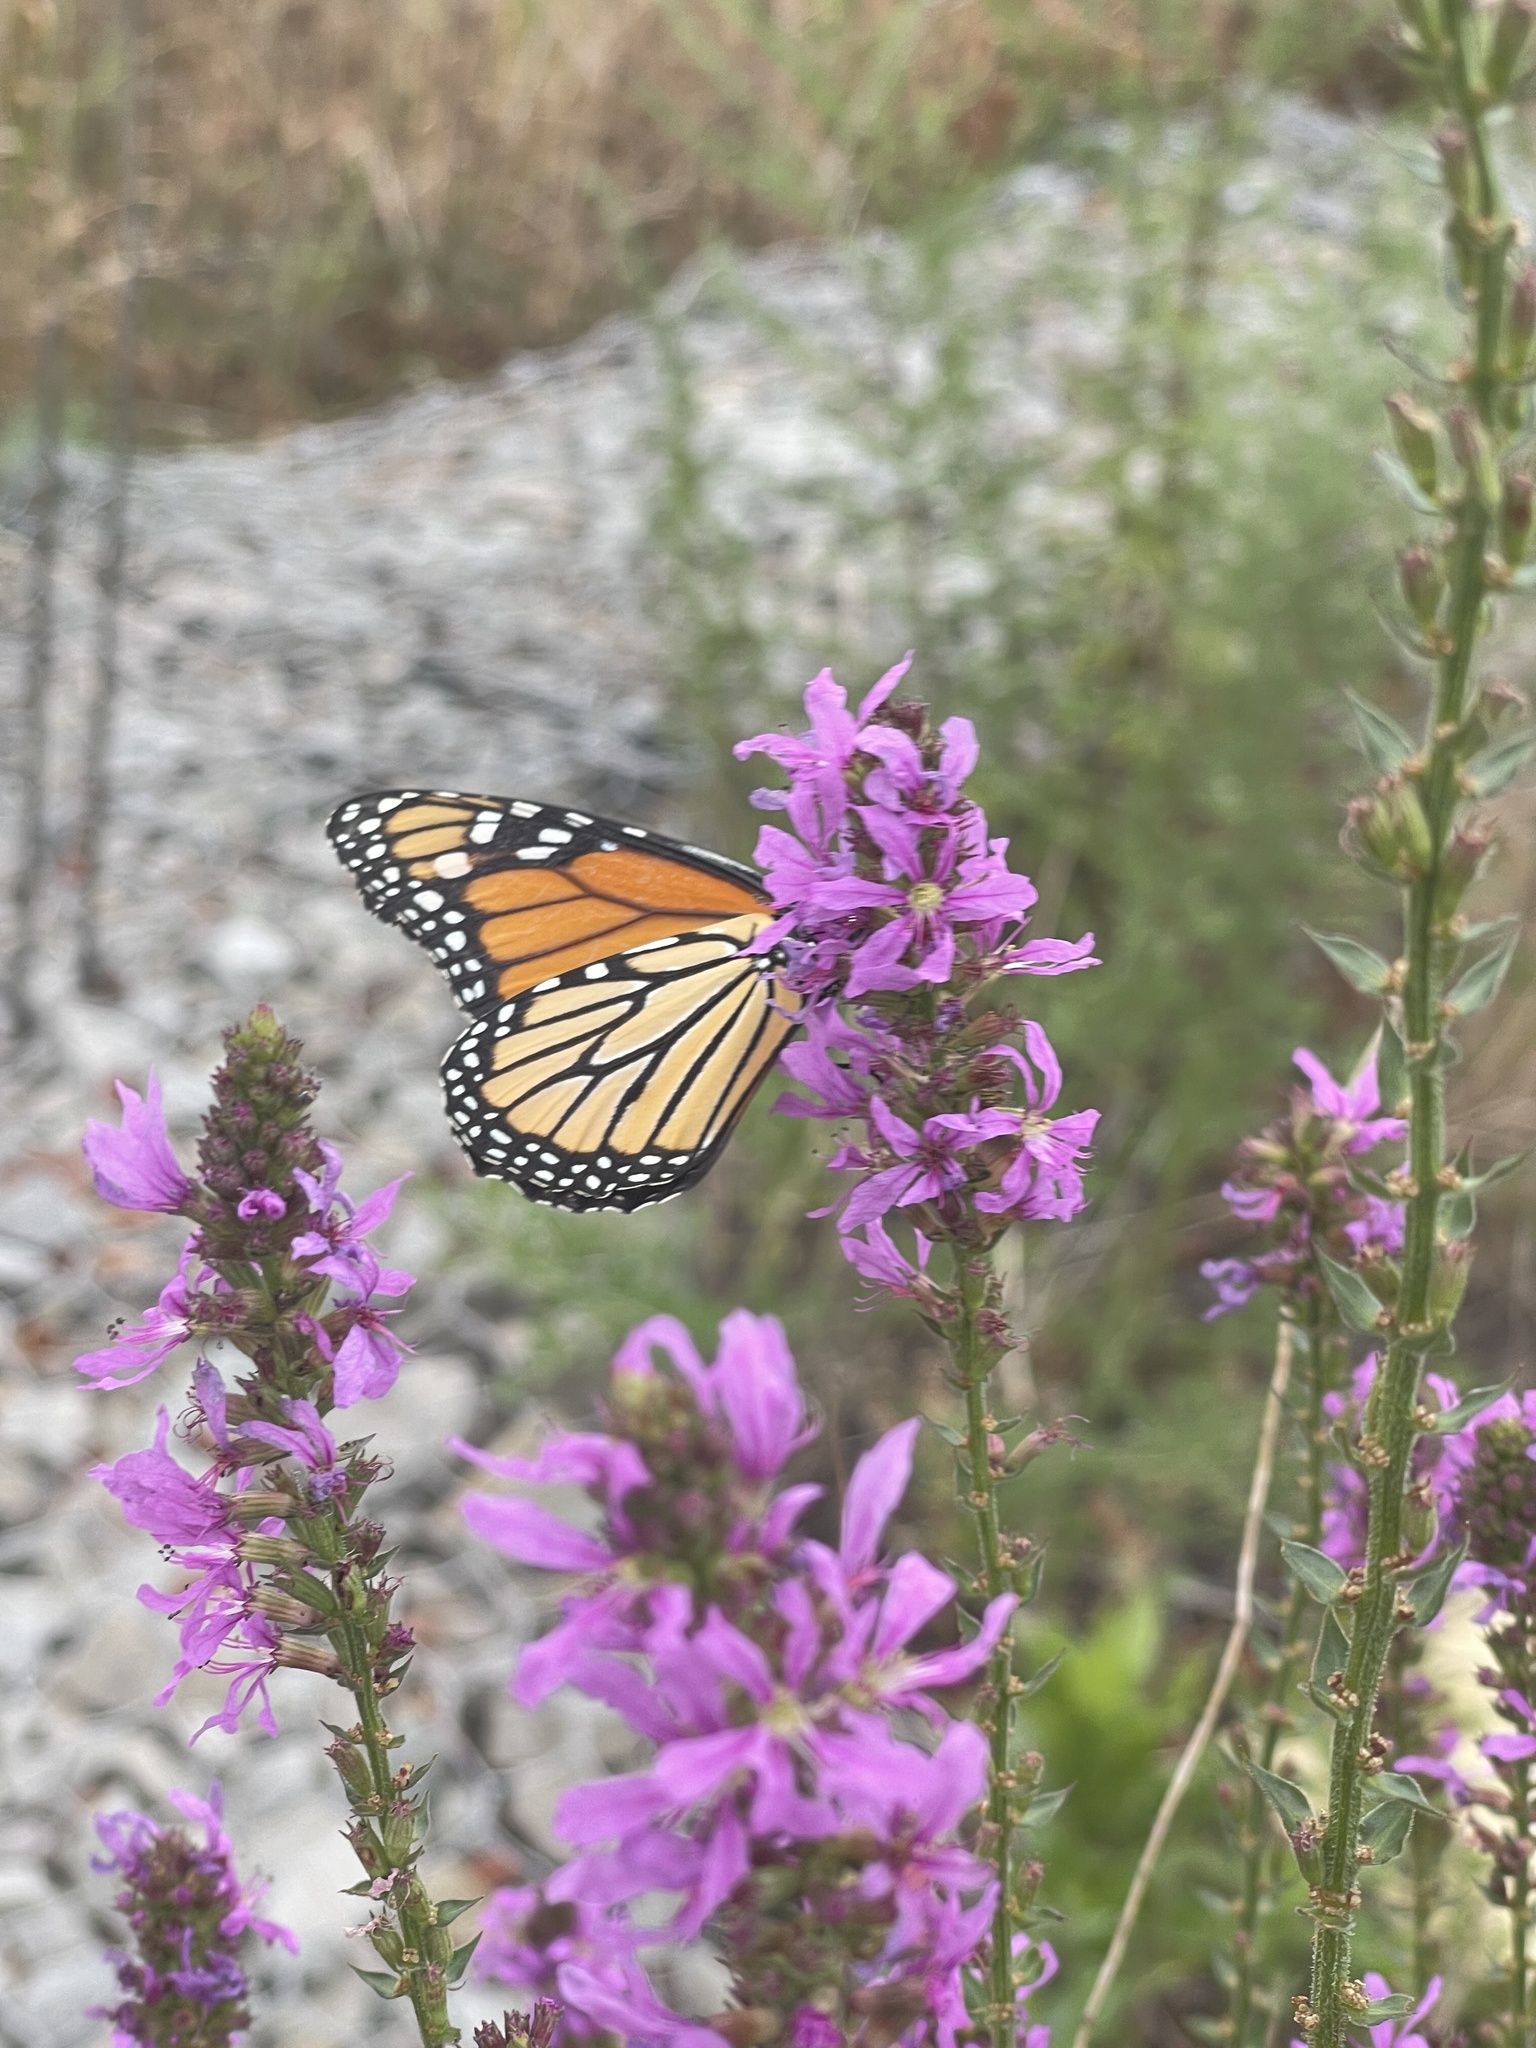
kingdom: Animalia
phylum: Arthropoda
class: Insecta
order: Lepidoptera
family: Nymphalidae
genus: Danaus
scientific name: Danaus plexippus
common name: Monarch
